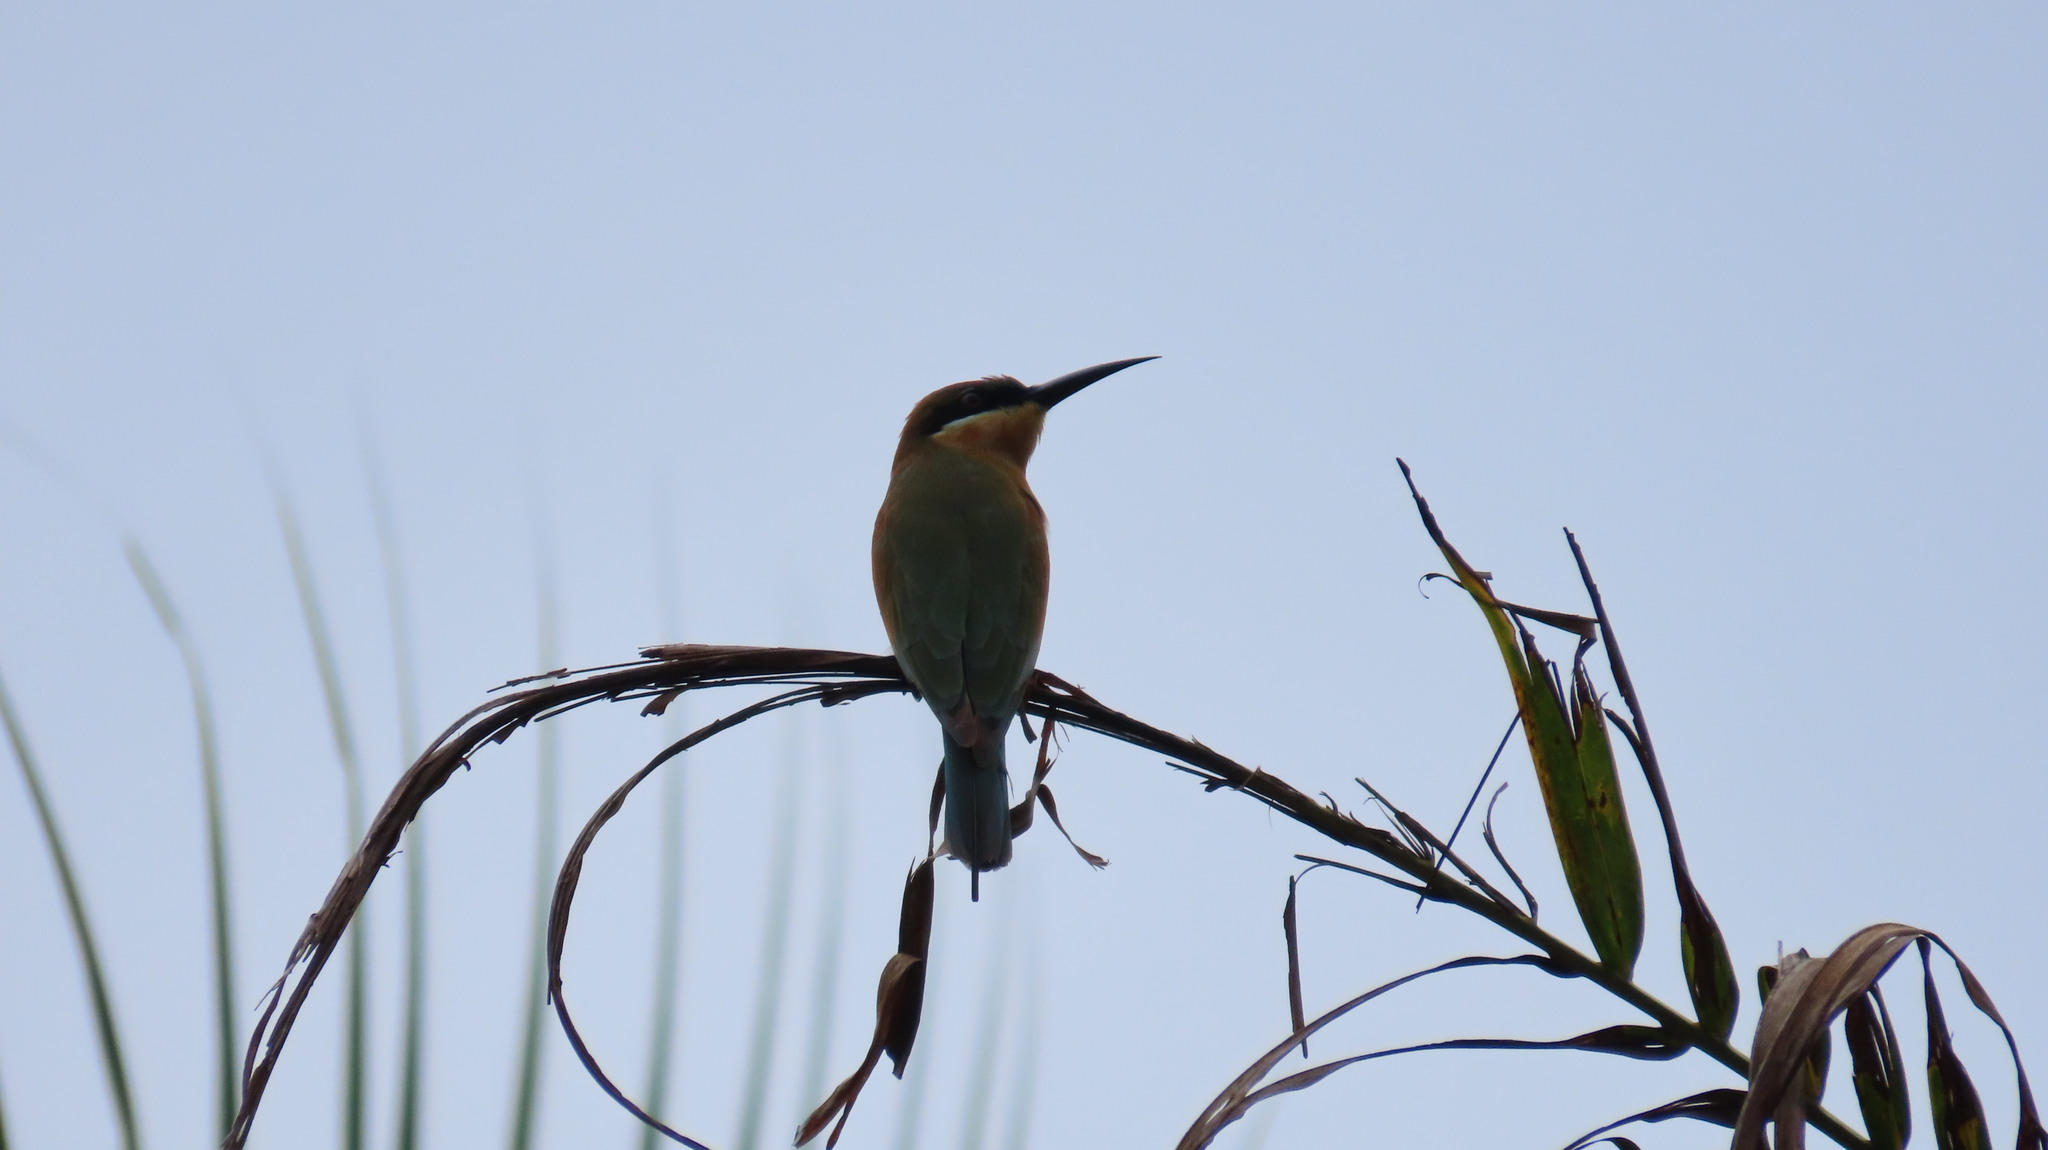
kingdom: Animalia
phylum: Chordata
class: Aves
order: Coraciiformes
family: Meropidae
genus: Merops
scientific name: Merops philippinus
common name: Blue-tailed bee-eater
